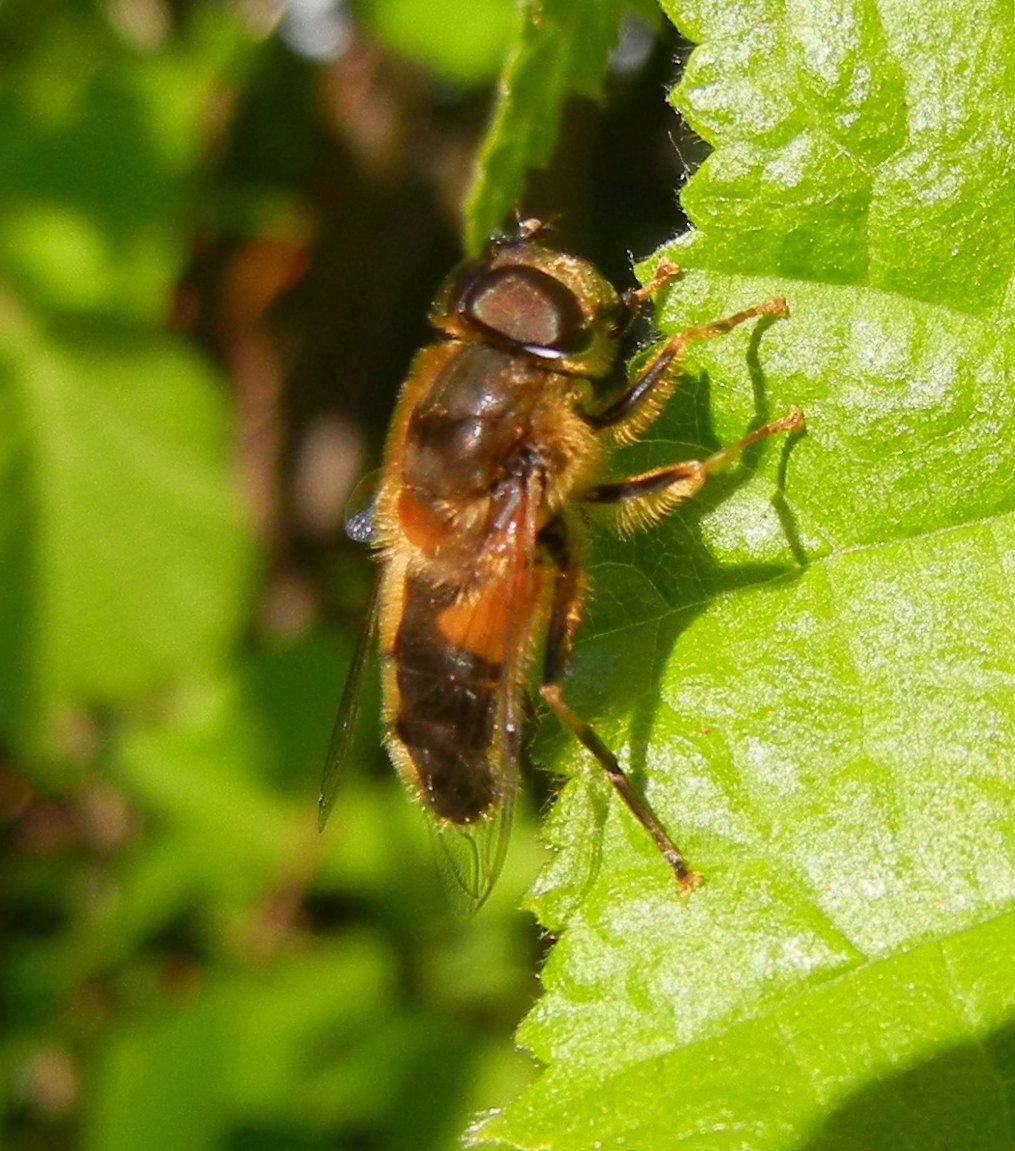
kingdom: Animalia
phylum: Arthropoda
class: Insecta
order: Diptera
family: Syrphidae
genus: Eristalis
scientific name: Eristalis pertinax
